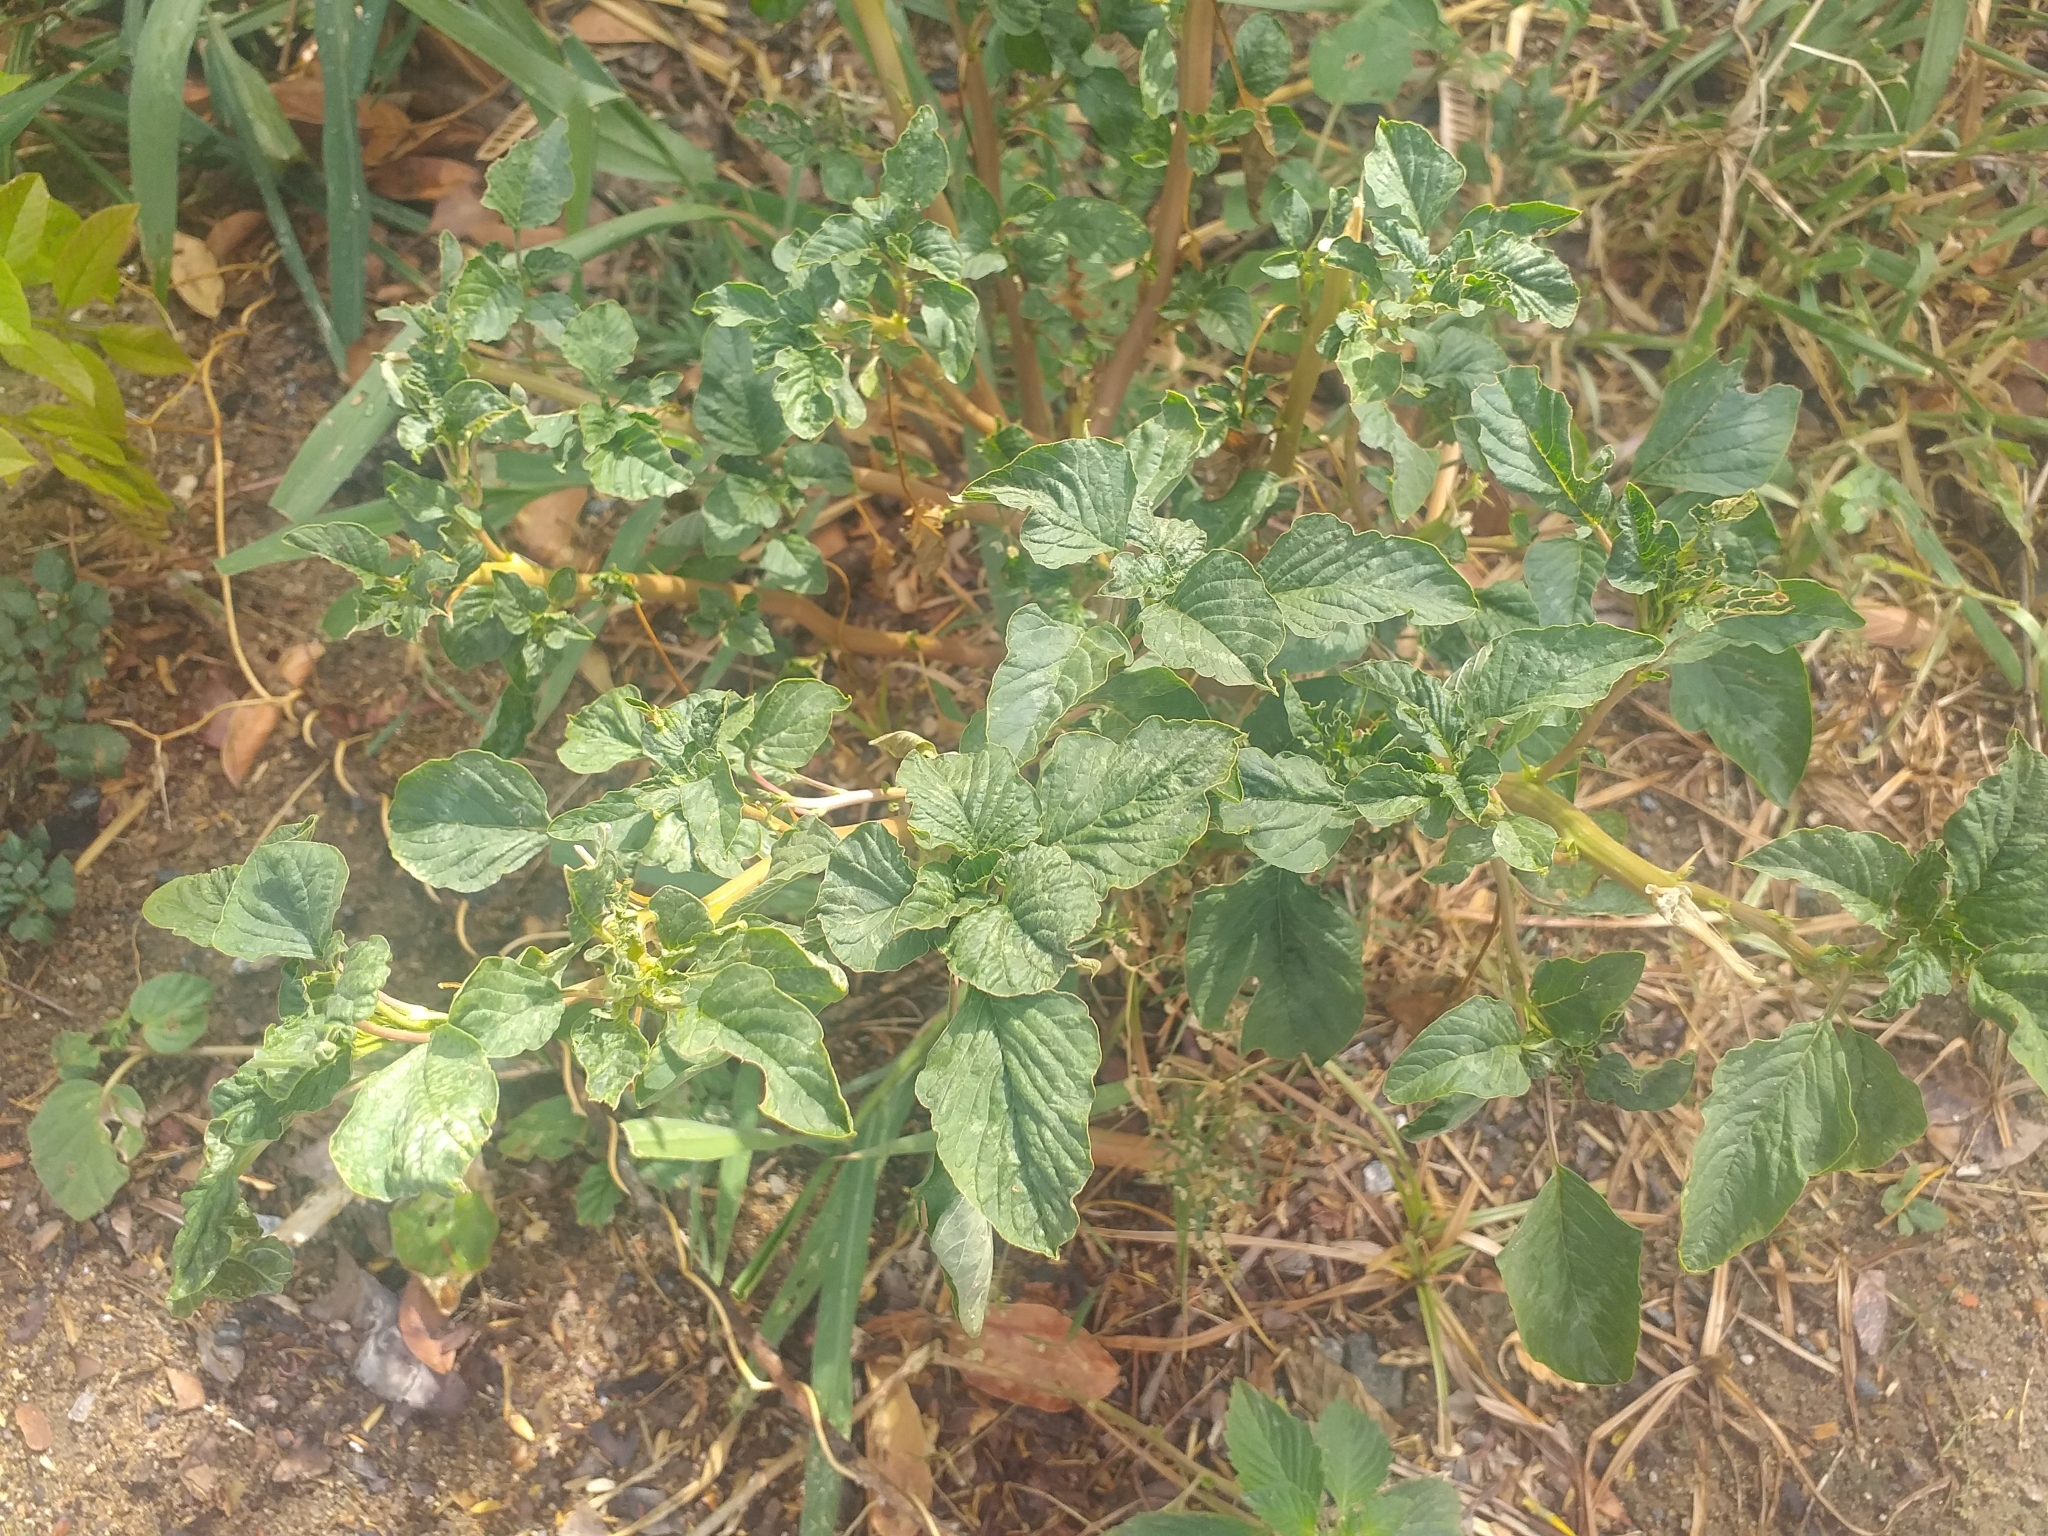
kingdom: Plantae
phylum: Tracheophyta
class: Magnoliopsida
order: Caryophyllales
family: Amaranthaceae
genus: Amaranthus
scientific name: Amaranthus spinosus
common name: Spiny amaranth
